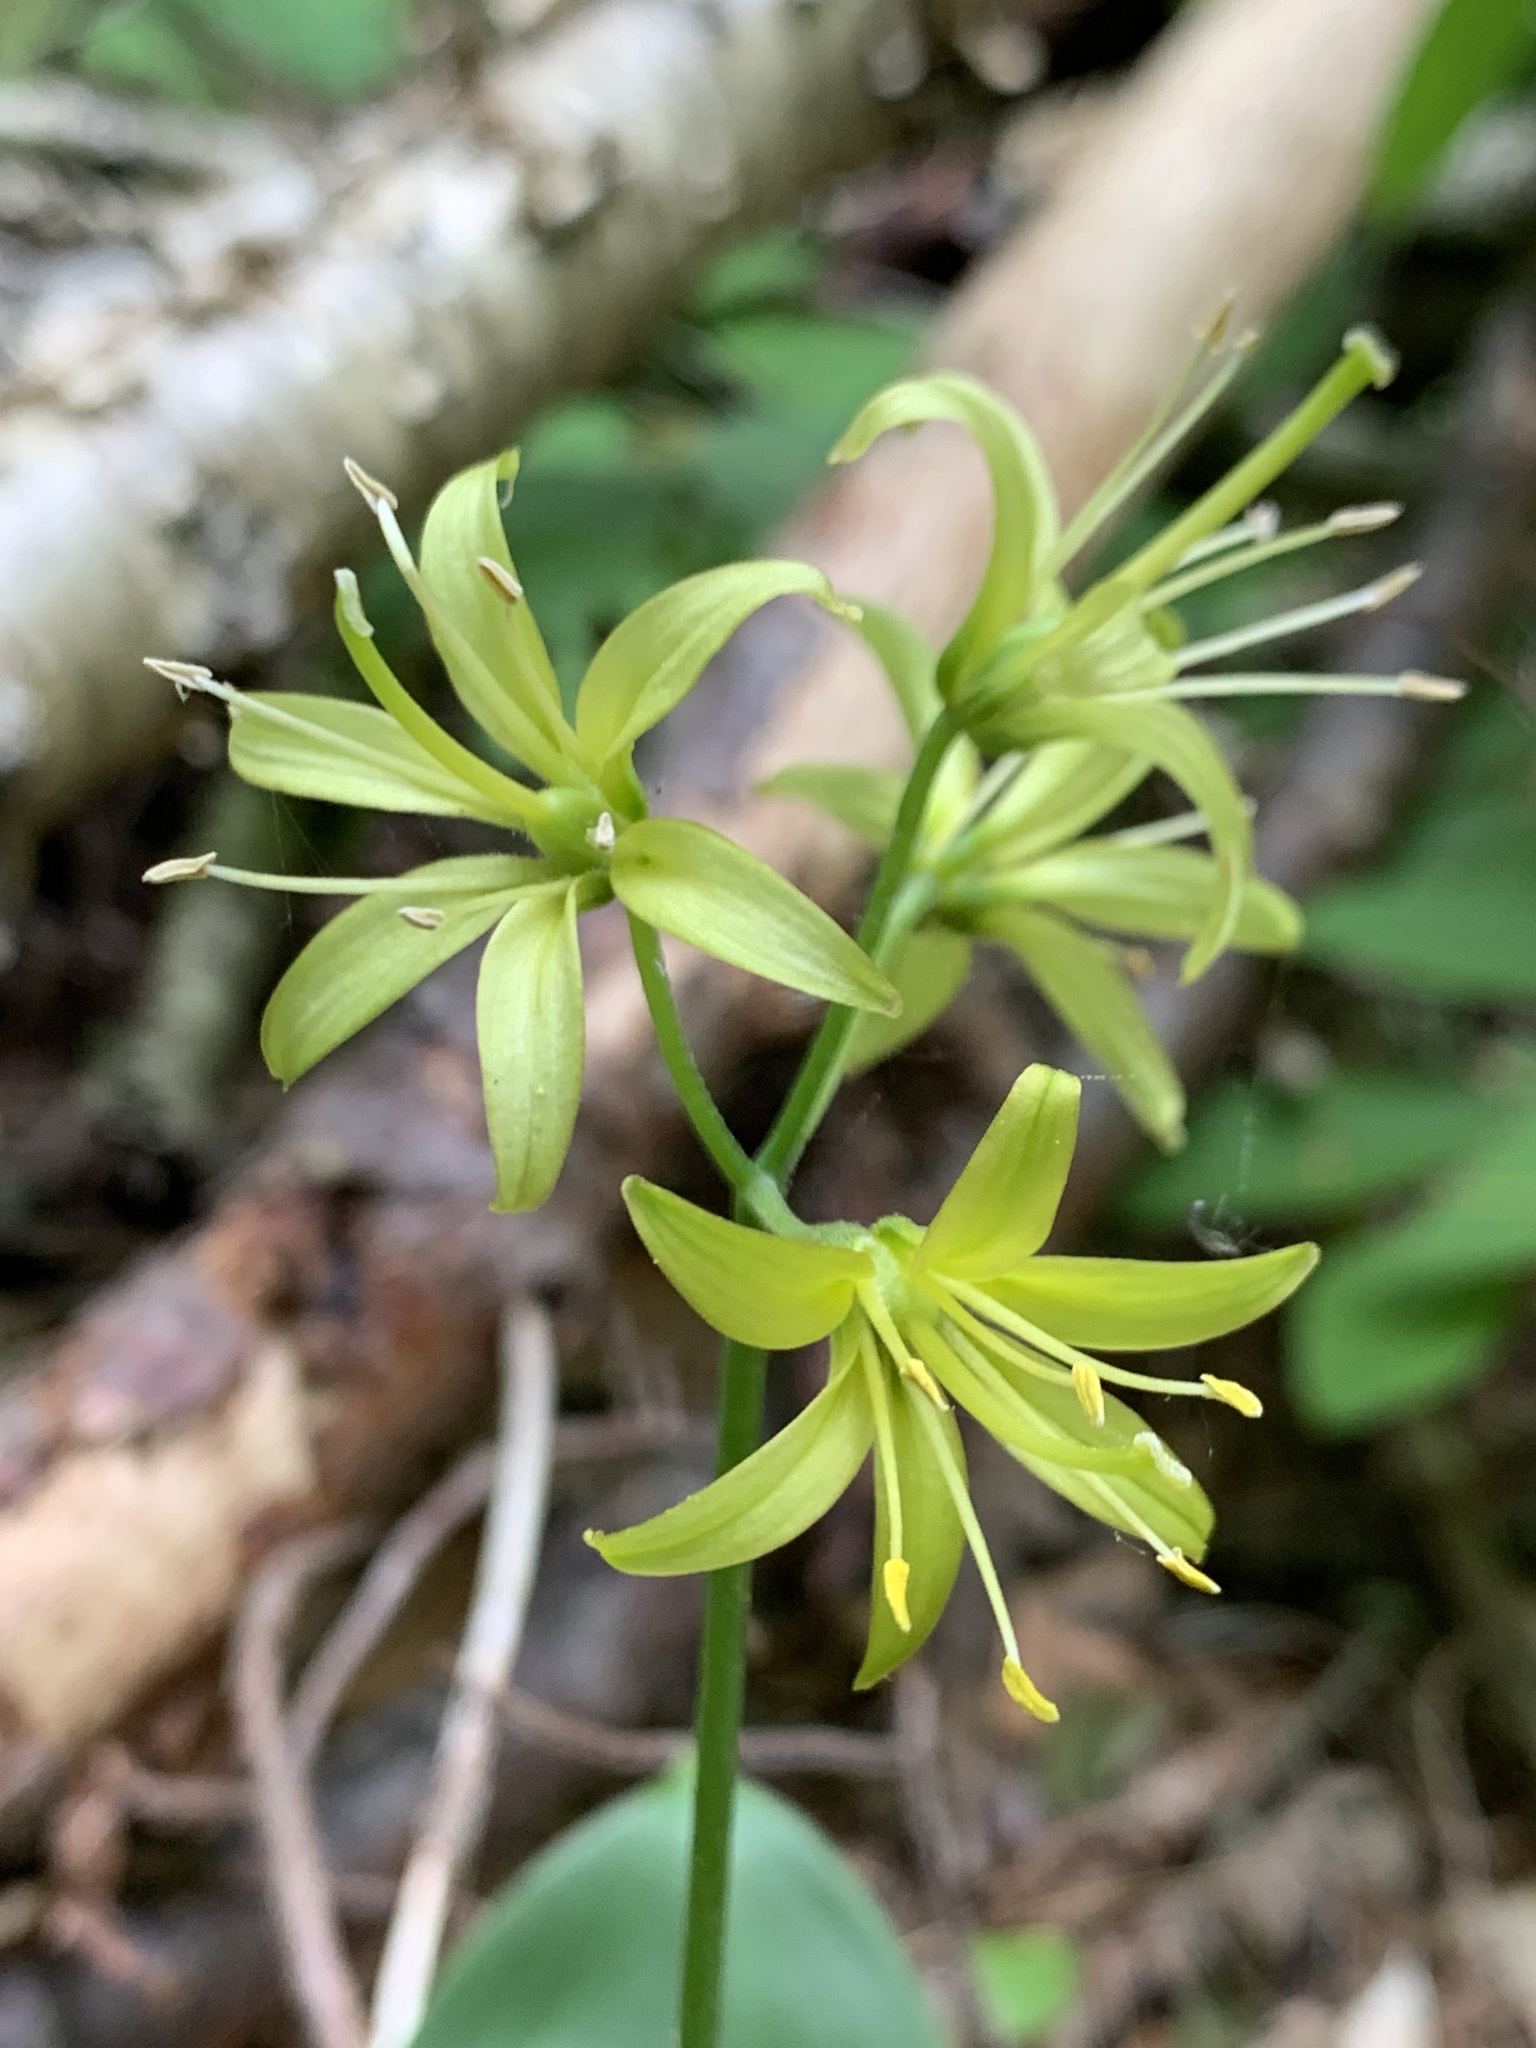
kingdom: Plantae
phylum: Tracheophyta
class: Liliopsida
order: Liliales
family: Liliaceae
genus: Clintonia
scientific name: Clintonia borealis
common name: Yellow clintonia
